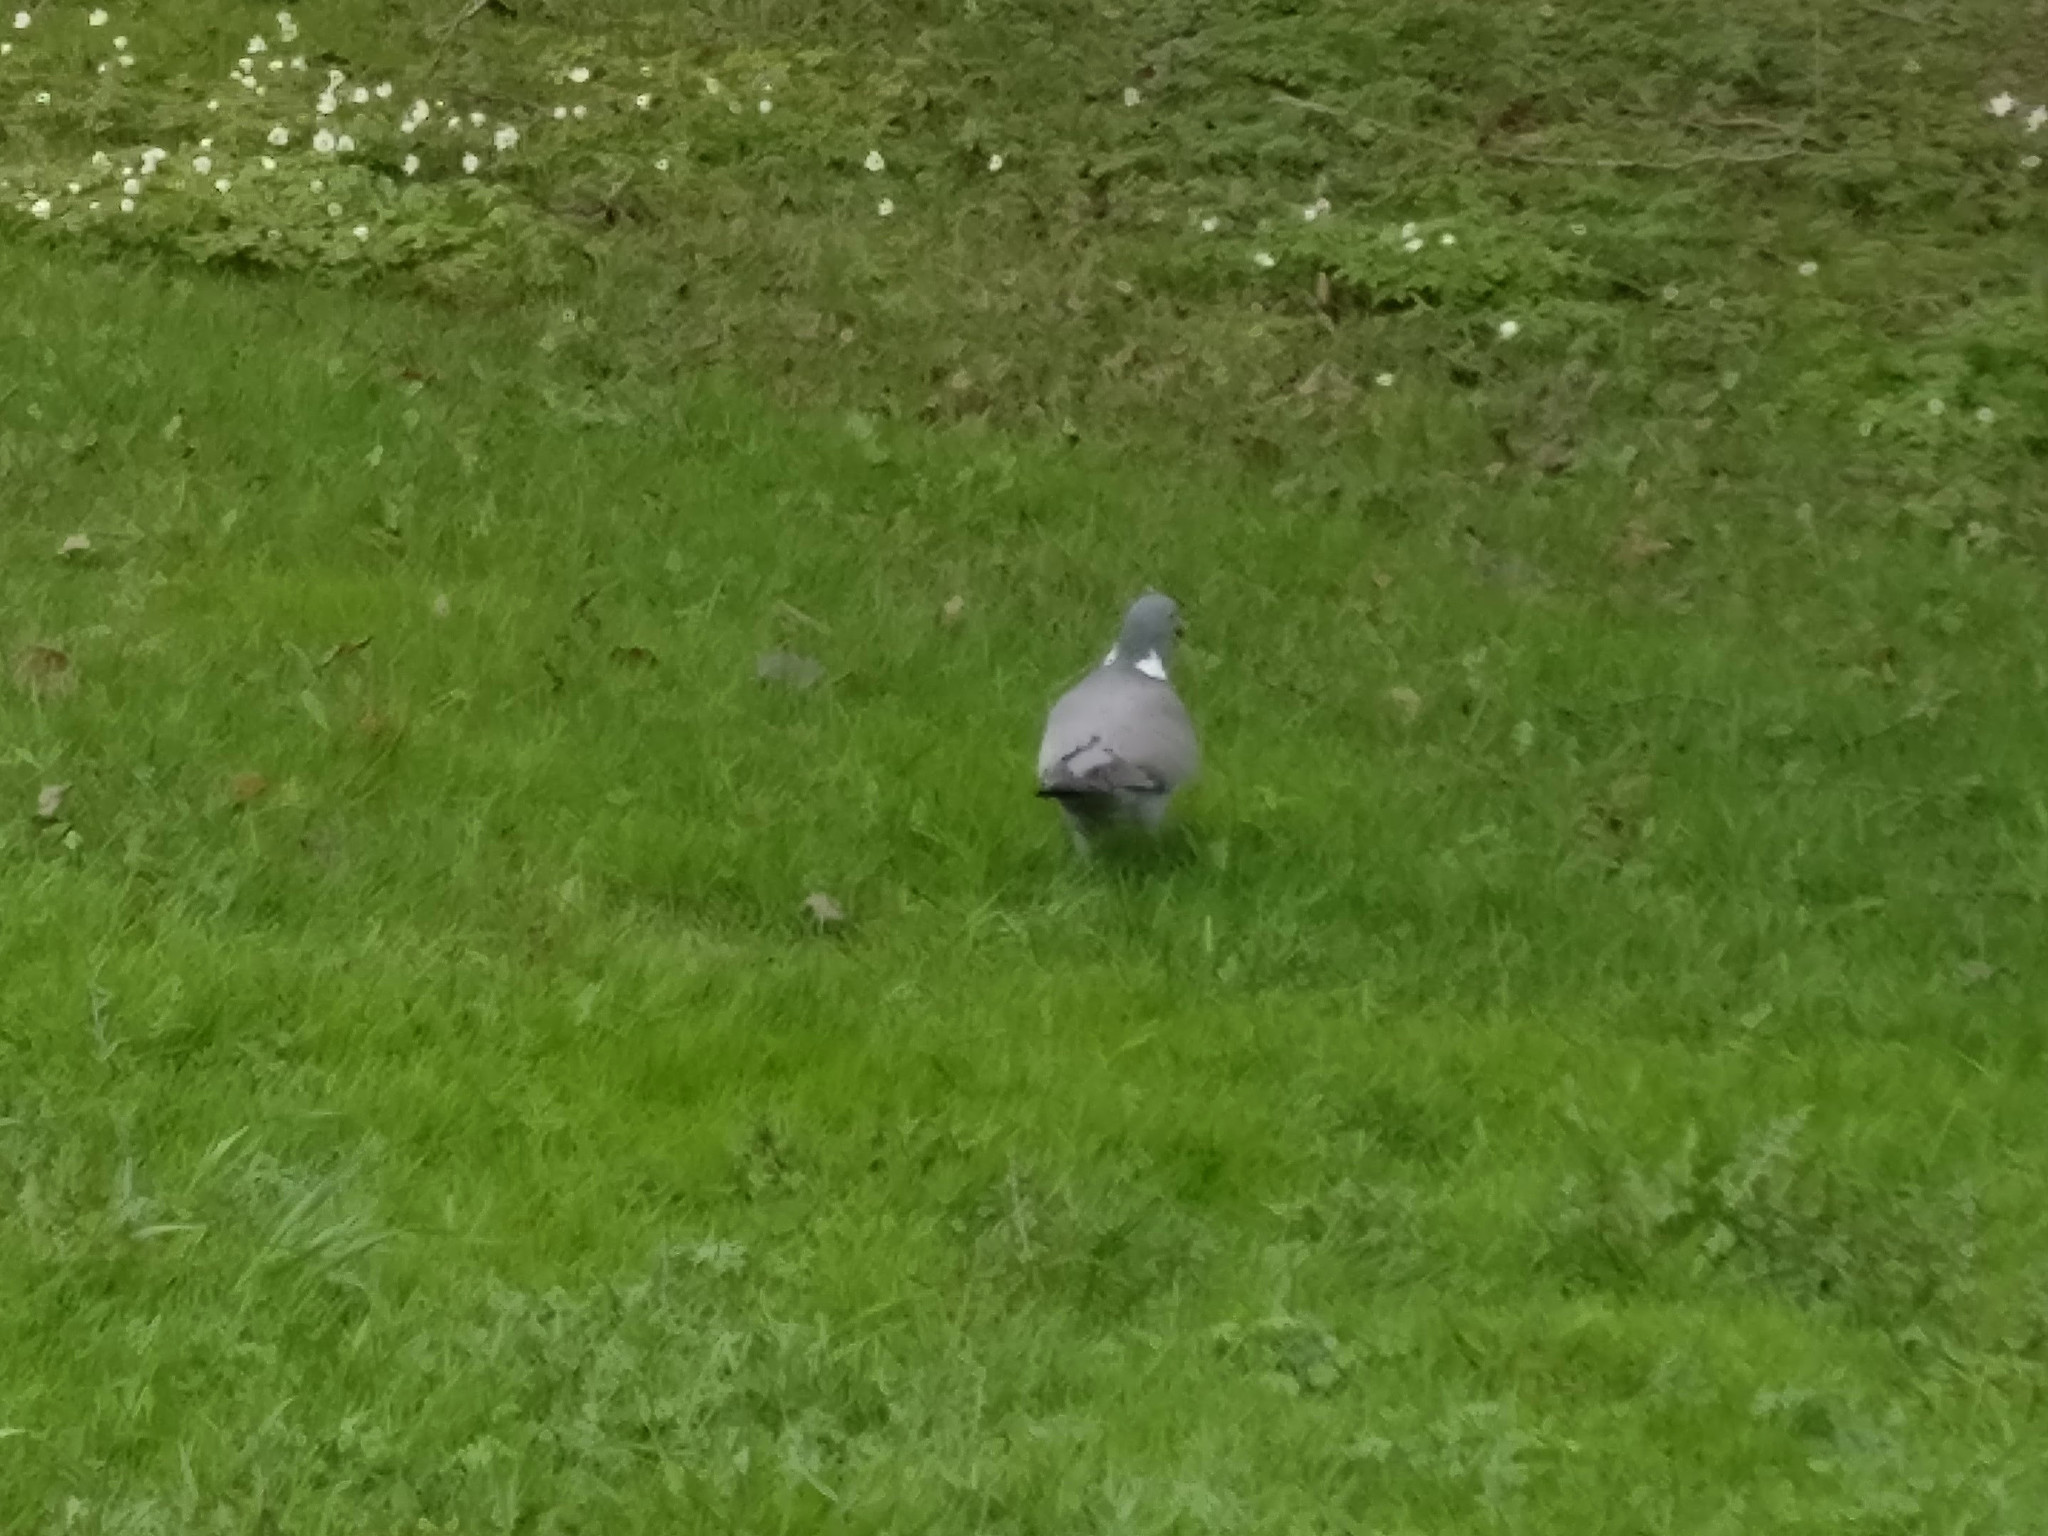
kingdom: Animalia
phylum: Chordata
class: Aves
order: Columbiformes
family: Columbidae
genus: Columba
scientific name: Columba palumbus
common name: Common wood pigeon
